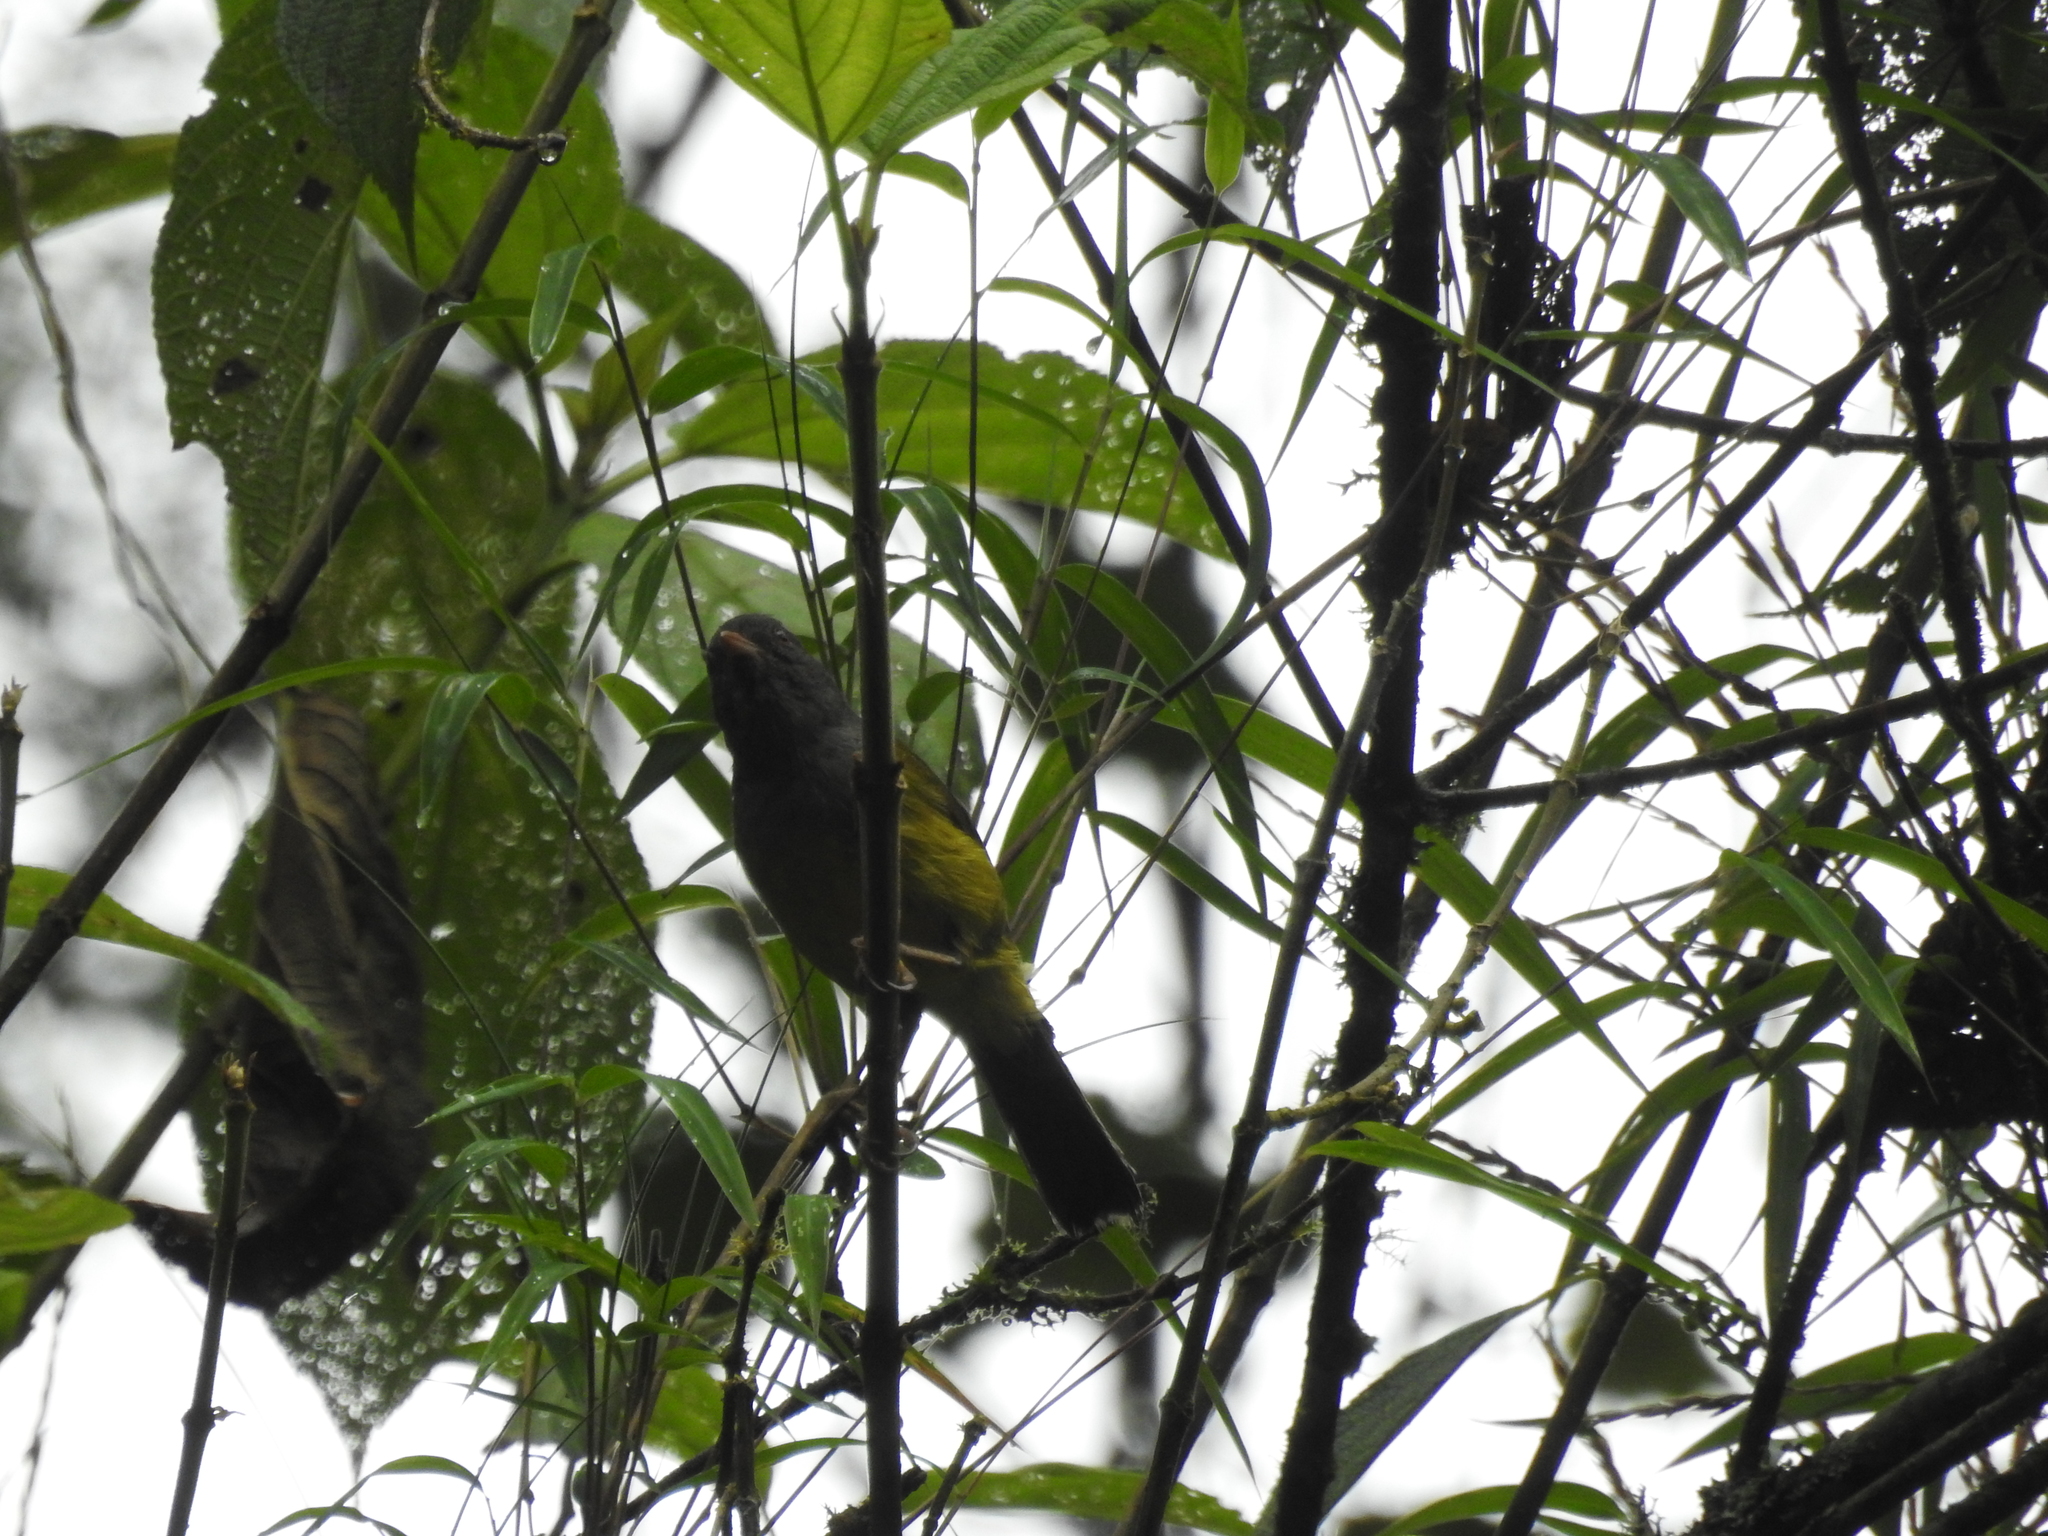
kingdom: Animalia
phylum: Chordata
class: Aves
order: Passeriformes
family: Thraupidae
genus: Cnemoscopus
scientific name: Cnemoscopus rubrirostris
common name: Grey-hooded bush tanager
